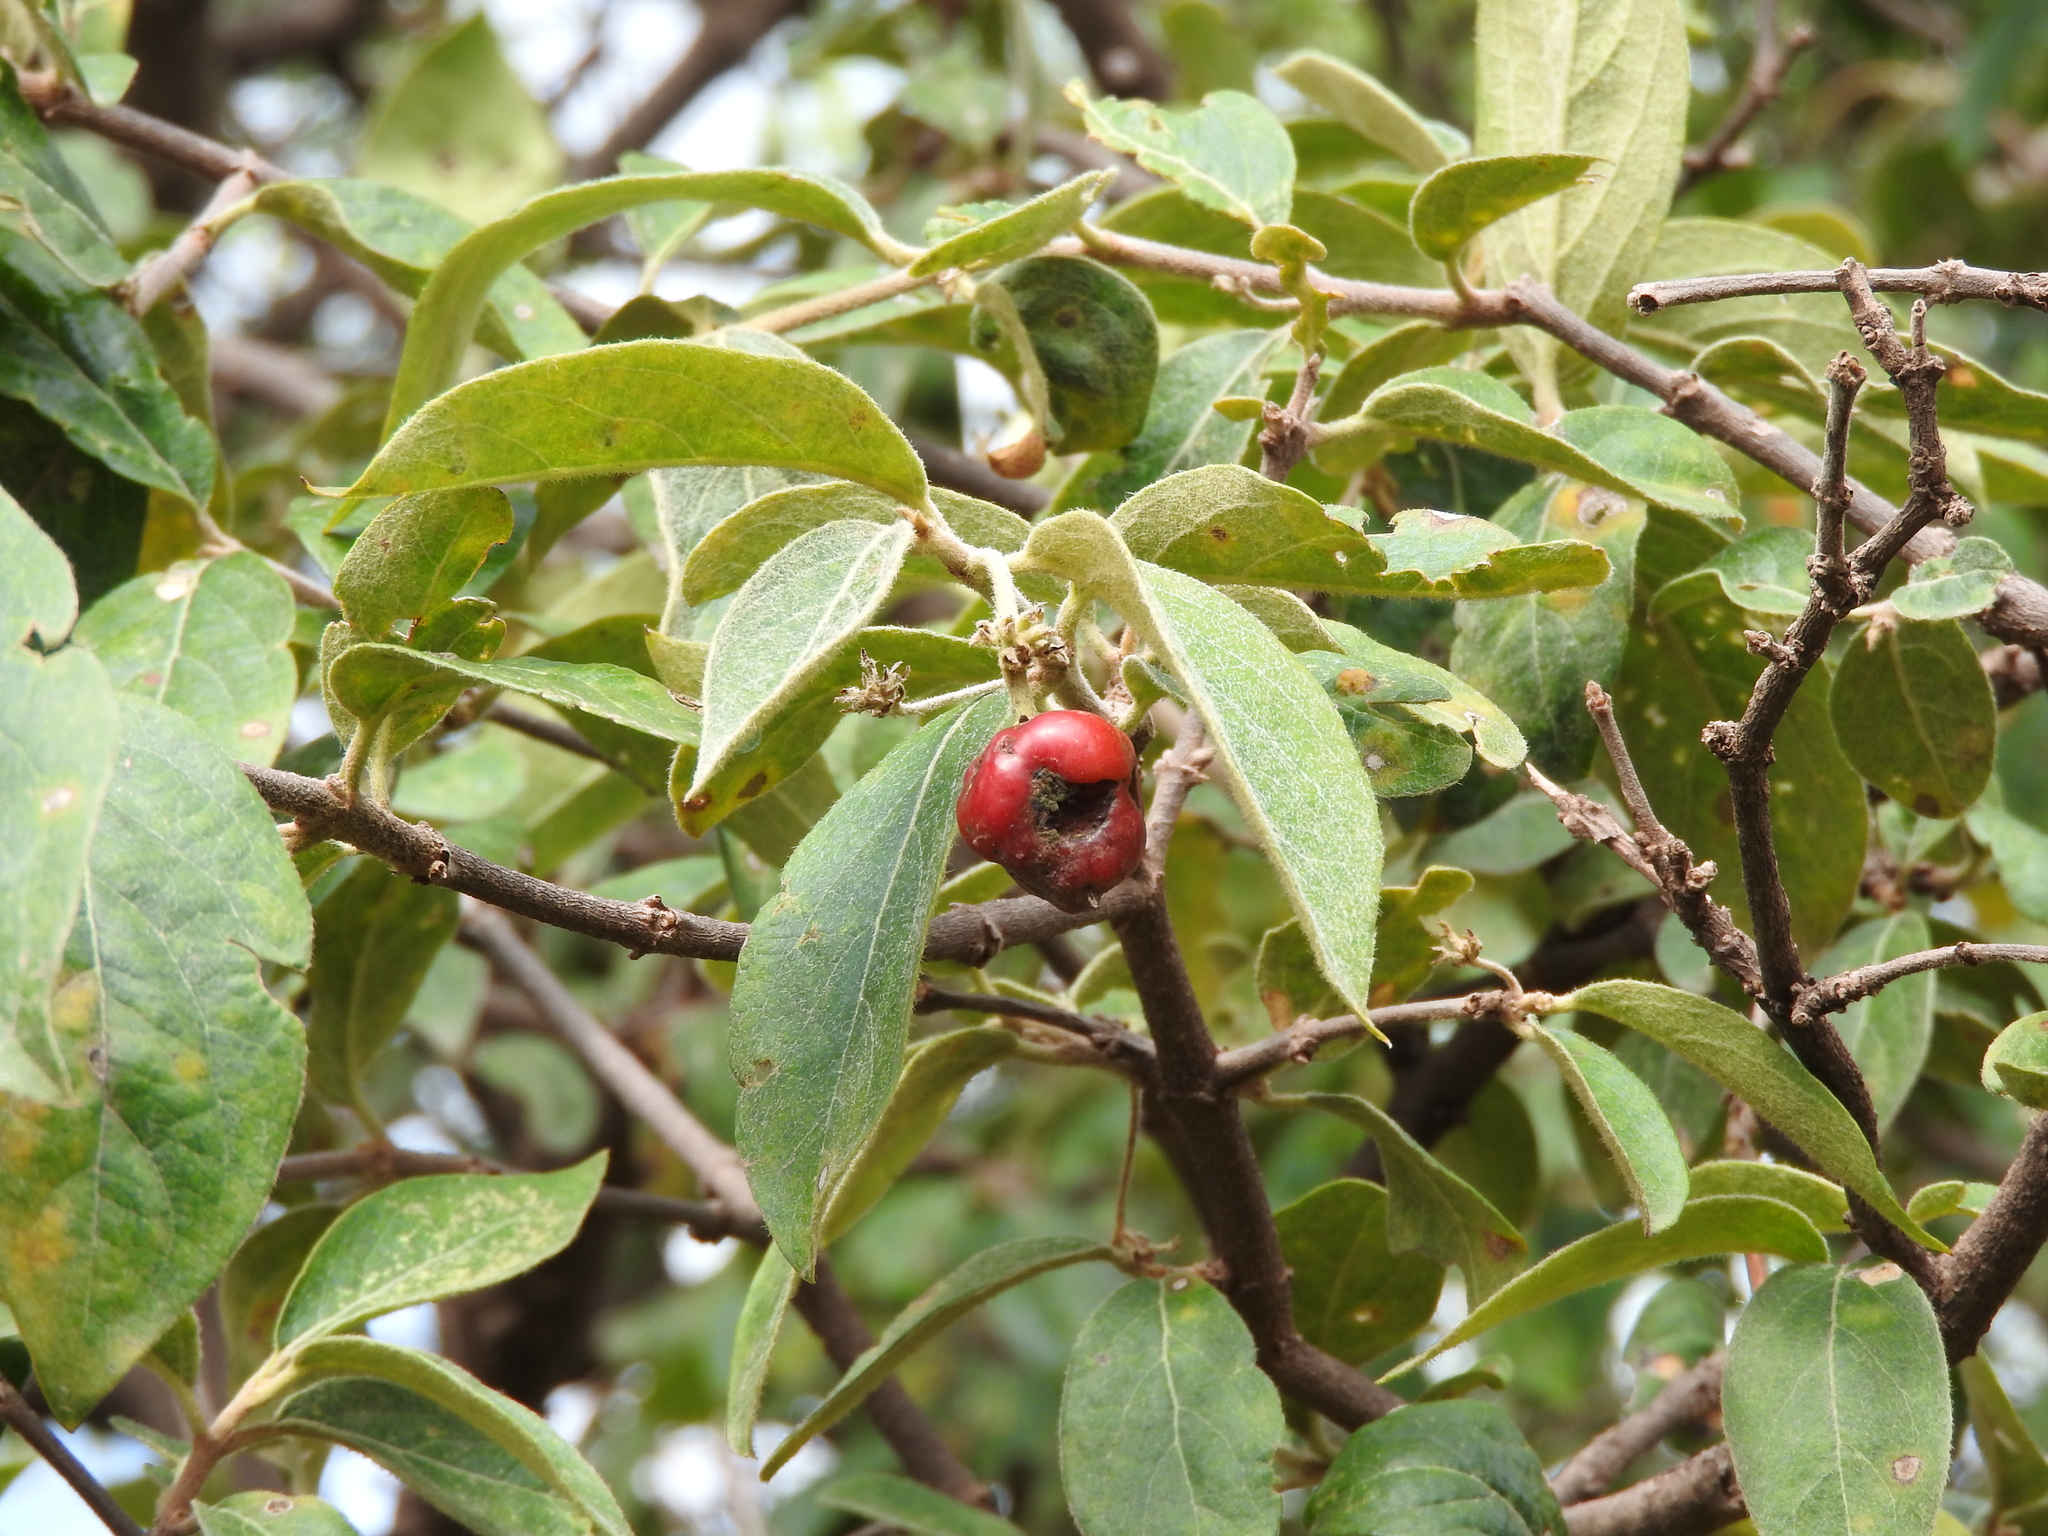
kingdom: Plantae
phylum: Tracheophyta
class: Magnoliopsida
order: Malpighiales
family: Malpighiaceae
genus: Malpighia
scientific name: Malpighia mexicana
